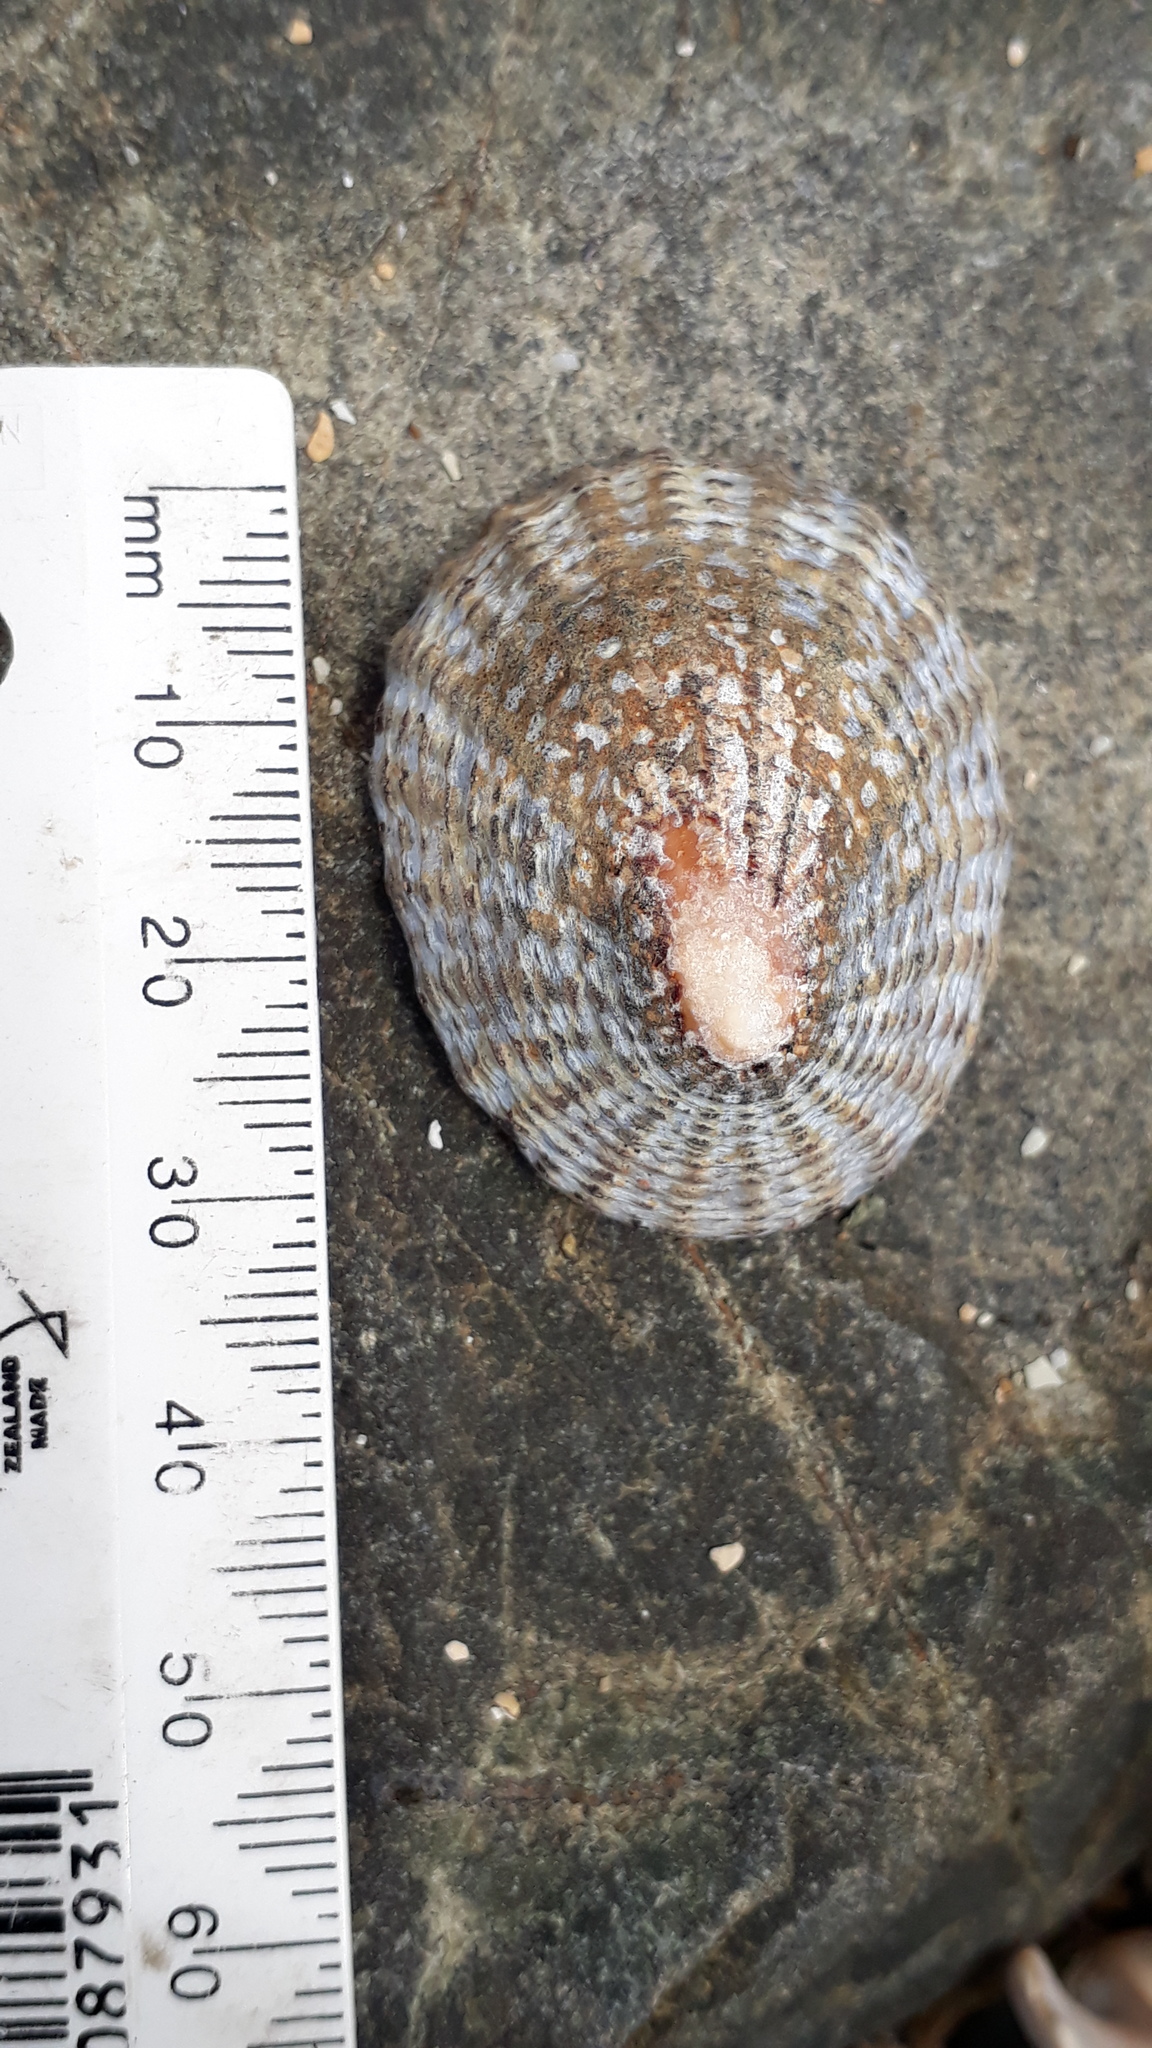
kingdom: Animalia
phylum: Mollusca
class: Gastropoda
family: Nacellidae
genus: Cellana
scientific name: Cellana denticulata
